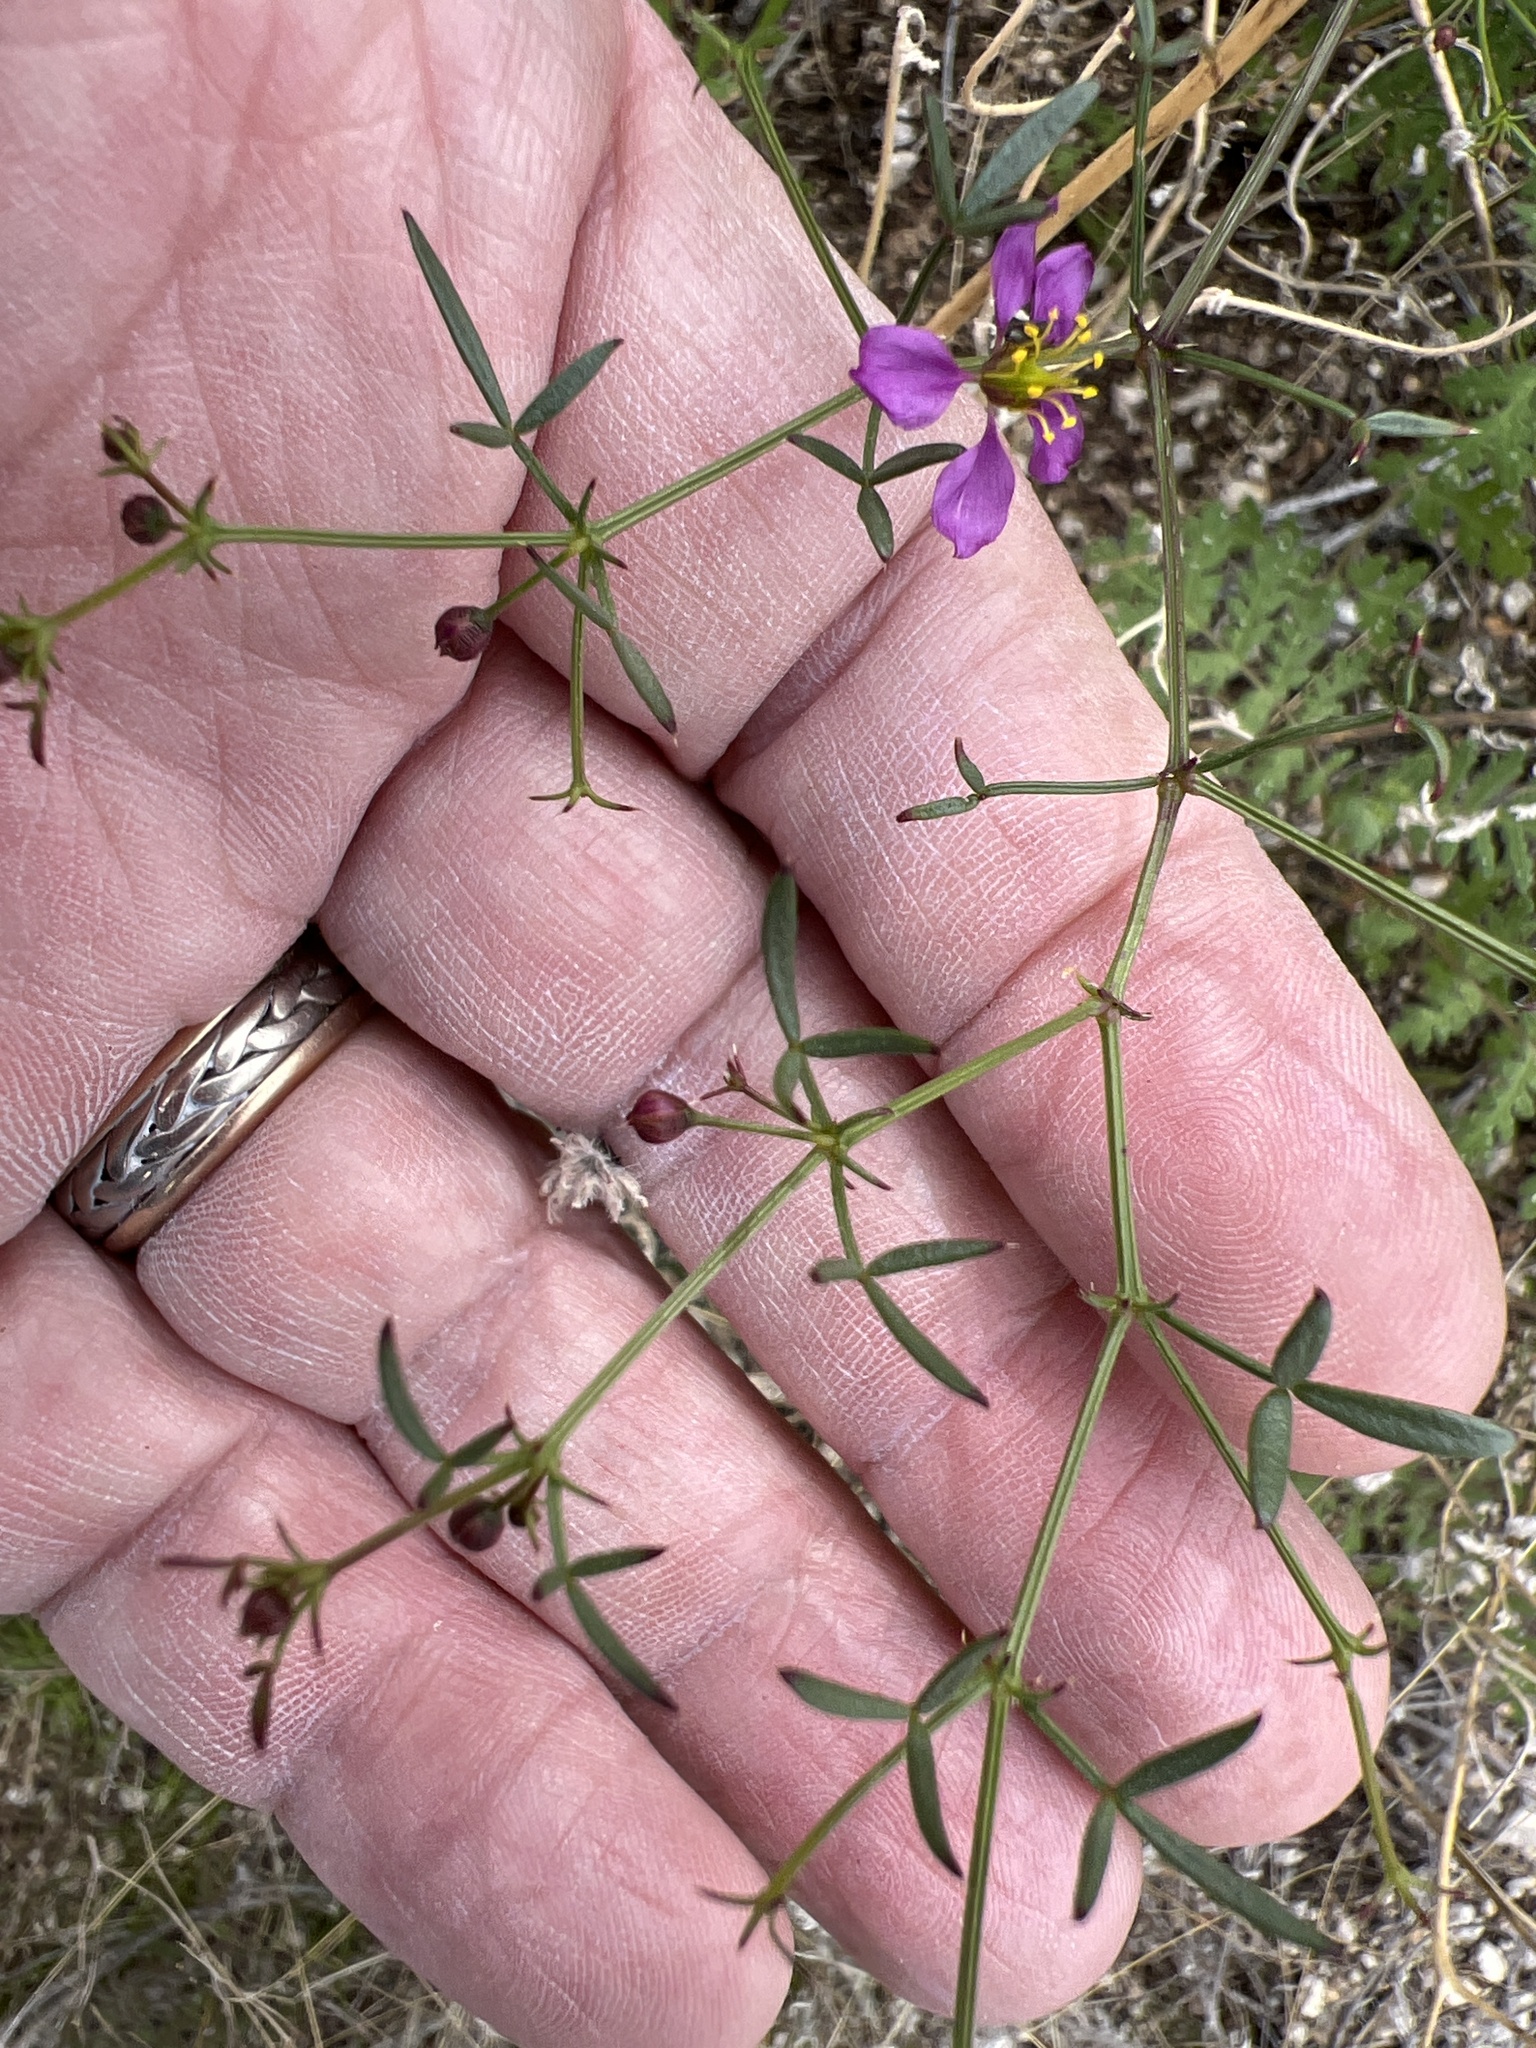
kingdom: Plantae
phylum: Tracheophyta
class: Magnoliopsida
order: Zygophyllales
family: Zygophyllaceae
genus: Fagonia
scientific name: Fagonia laevis
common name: California fagonbush
